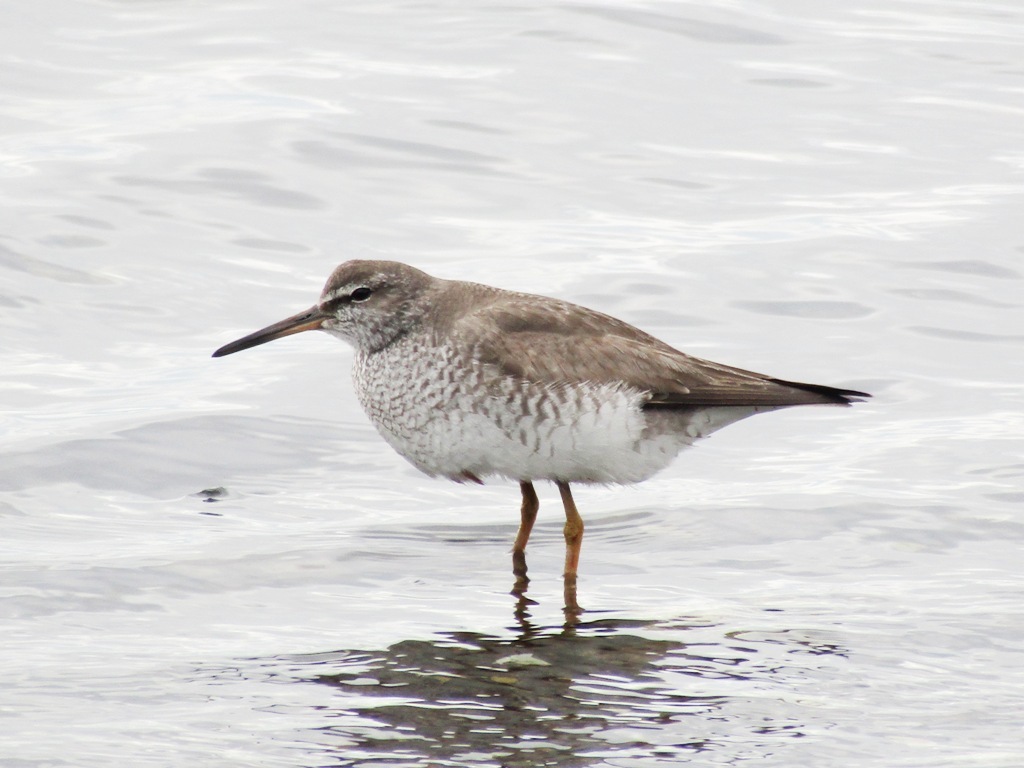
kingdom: Animalia
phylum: Chordata
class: Aves
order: Charadriiformes
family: Scolopacidae
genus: Tringa
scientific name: Tringa brevipes
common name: Grey-tailed tattler
